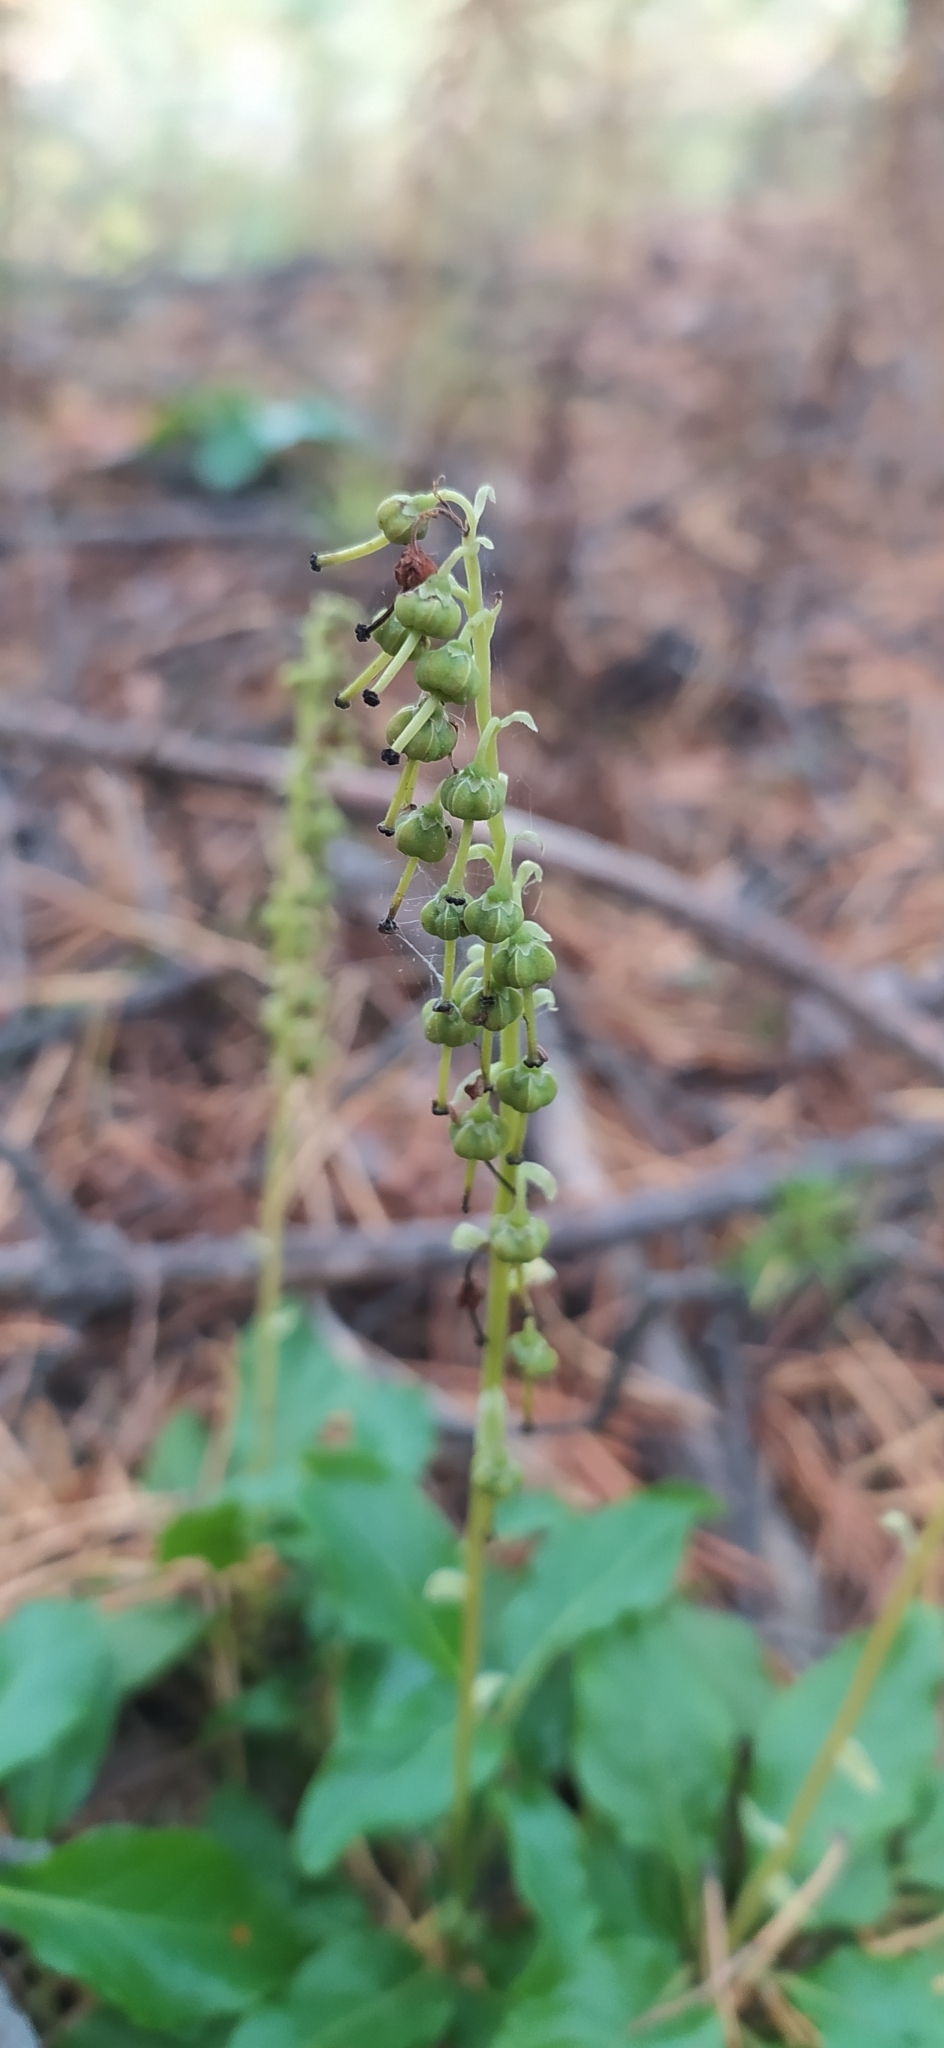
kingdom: Plantae
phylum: Tracheophyta
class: Magnoliopsida
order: Ericales
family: Ericaceae
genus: Orthilia
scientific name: Orthilia secunda
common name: One-sided orthilia
